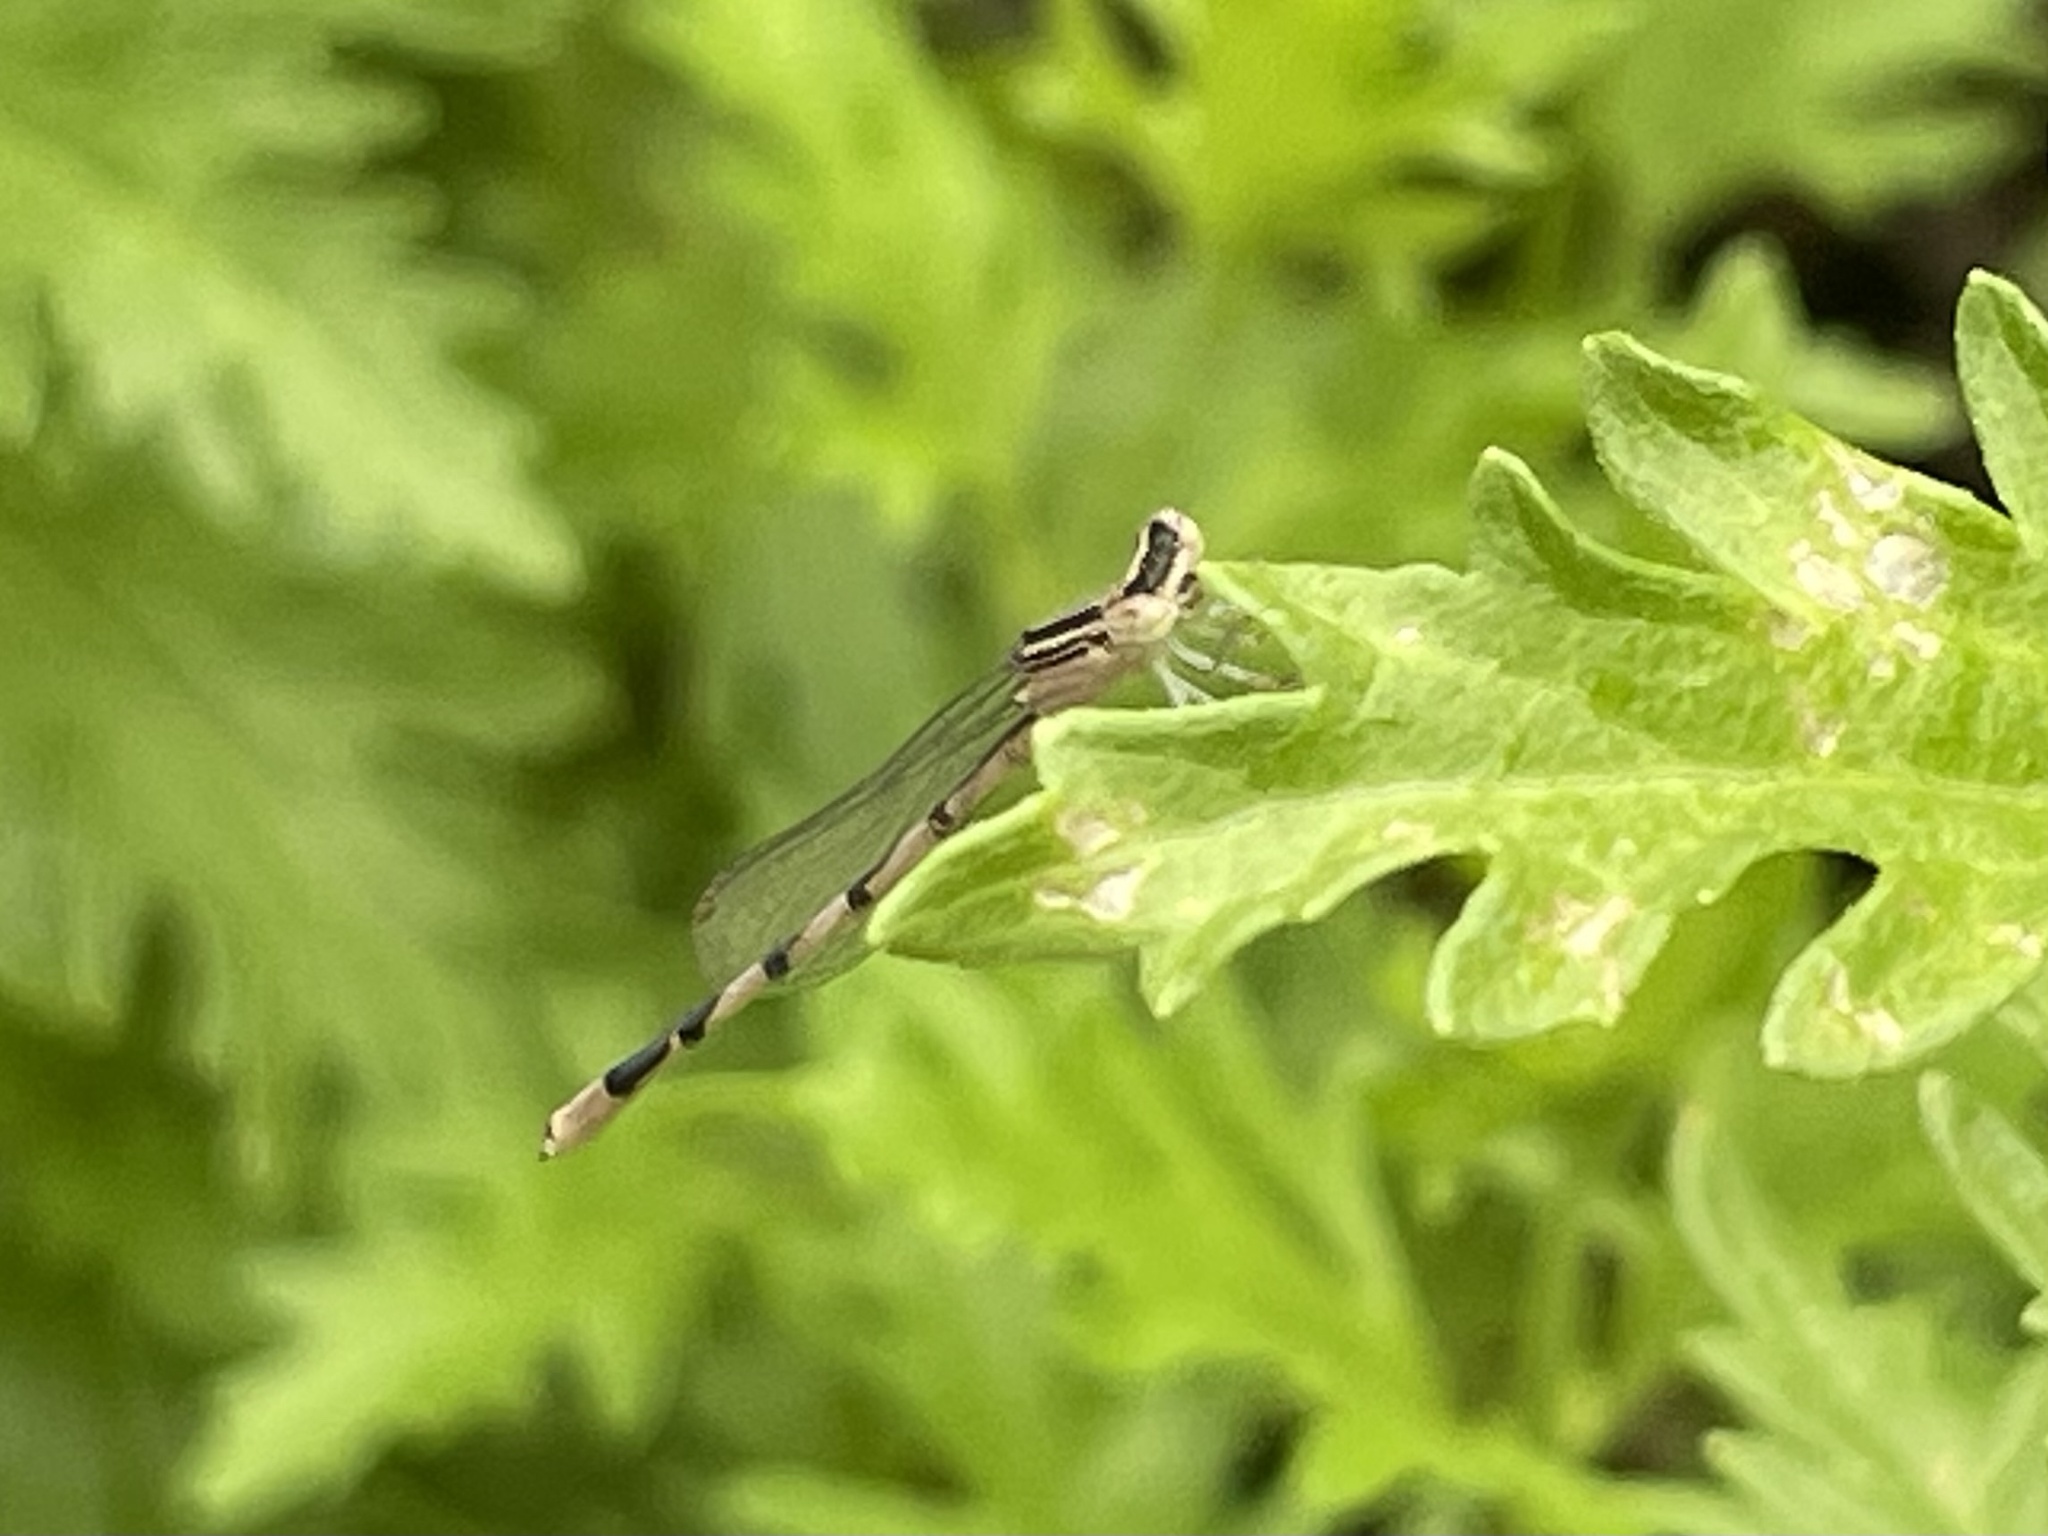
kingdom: Animalia
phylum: Arthropoda
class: Insecta
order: Odonata
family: Coenagrionidae
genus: Enallagma
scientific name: Enallagma basidens
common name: Double-striped bluet
